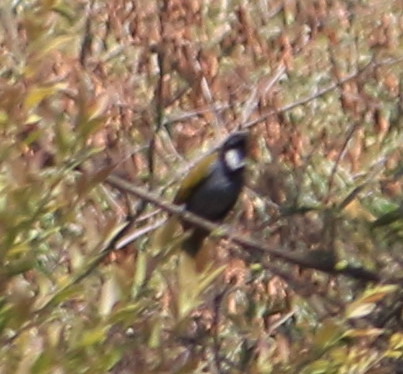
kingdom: Animalia
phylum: Chordata
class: Aves
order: Passeriformes
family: Thraupidae
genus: Saltator
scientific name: Saltator atriceps
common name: Black-headed saltator
